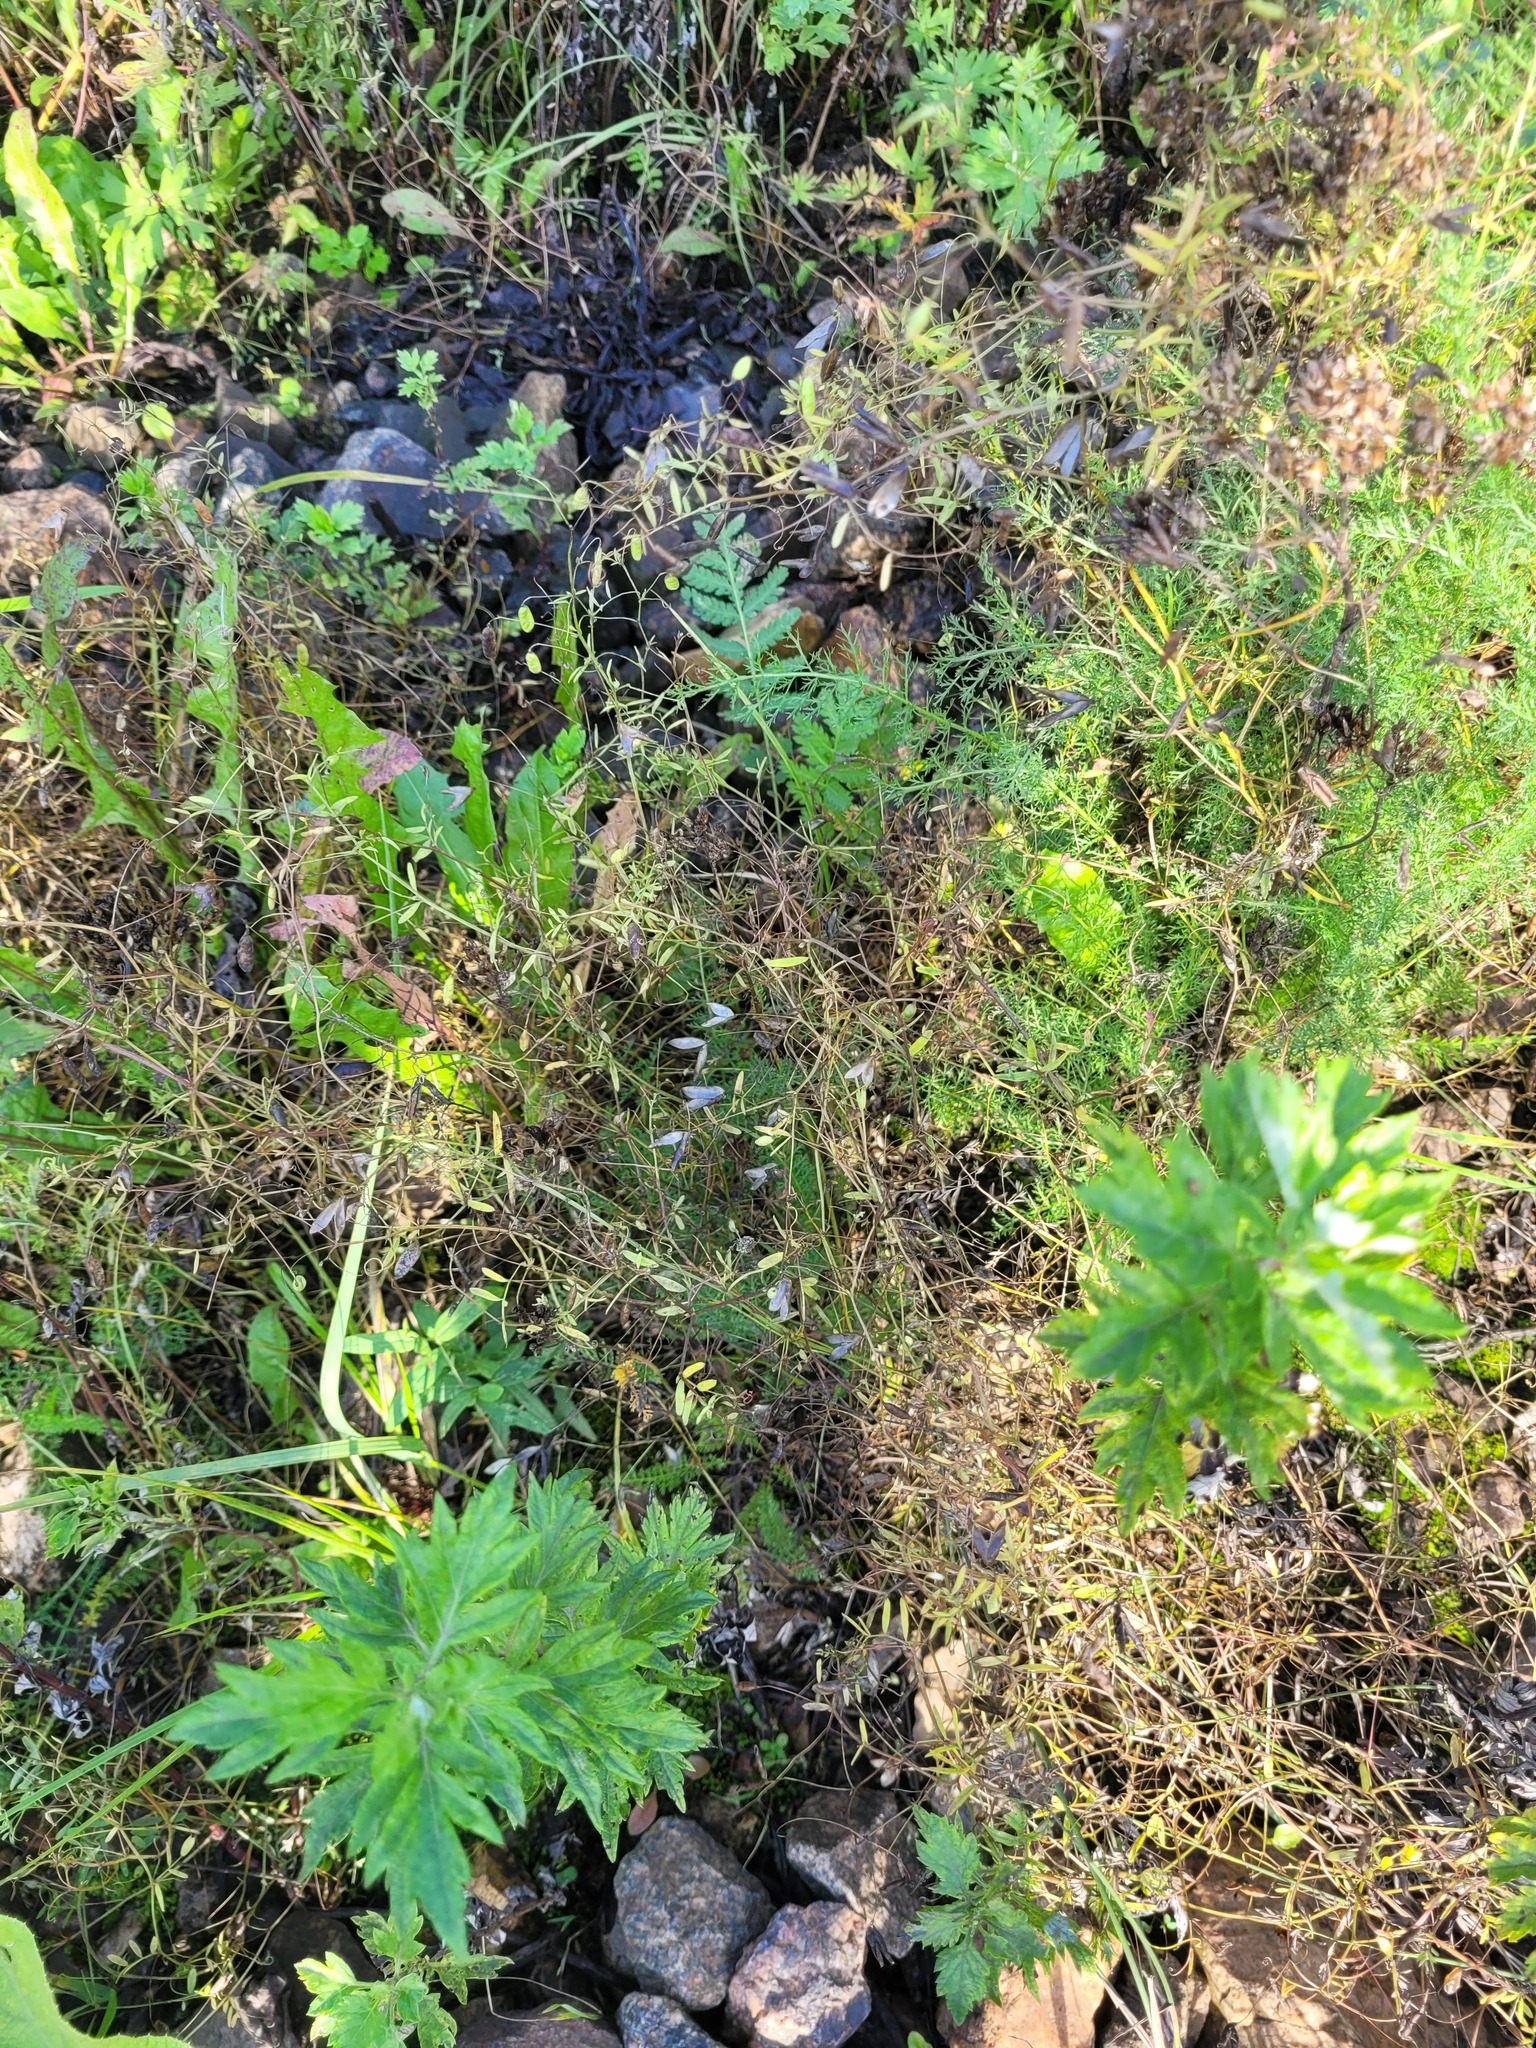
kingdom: Plantae
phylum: Tracheophyta
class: Magnoliopsida
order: Fabales
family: Fabaceae
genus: Vicia
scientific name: Vicia tetrasperma
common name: Smooth tare
